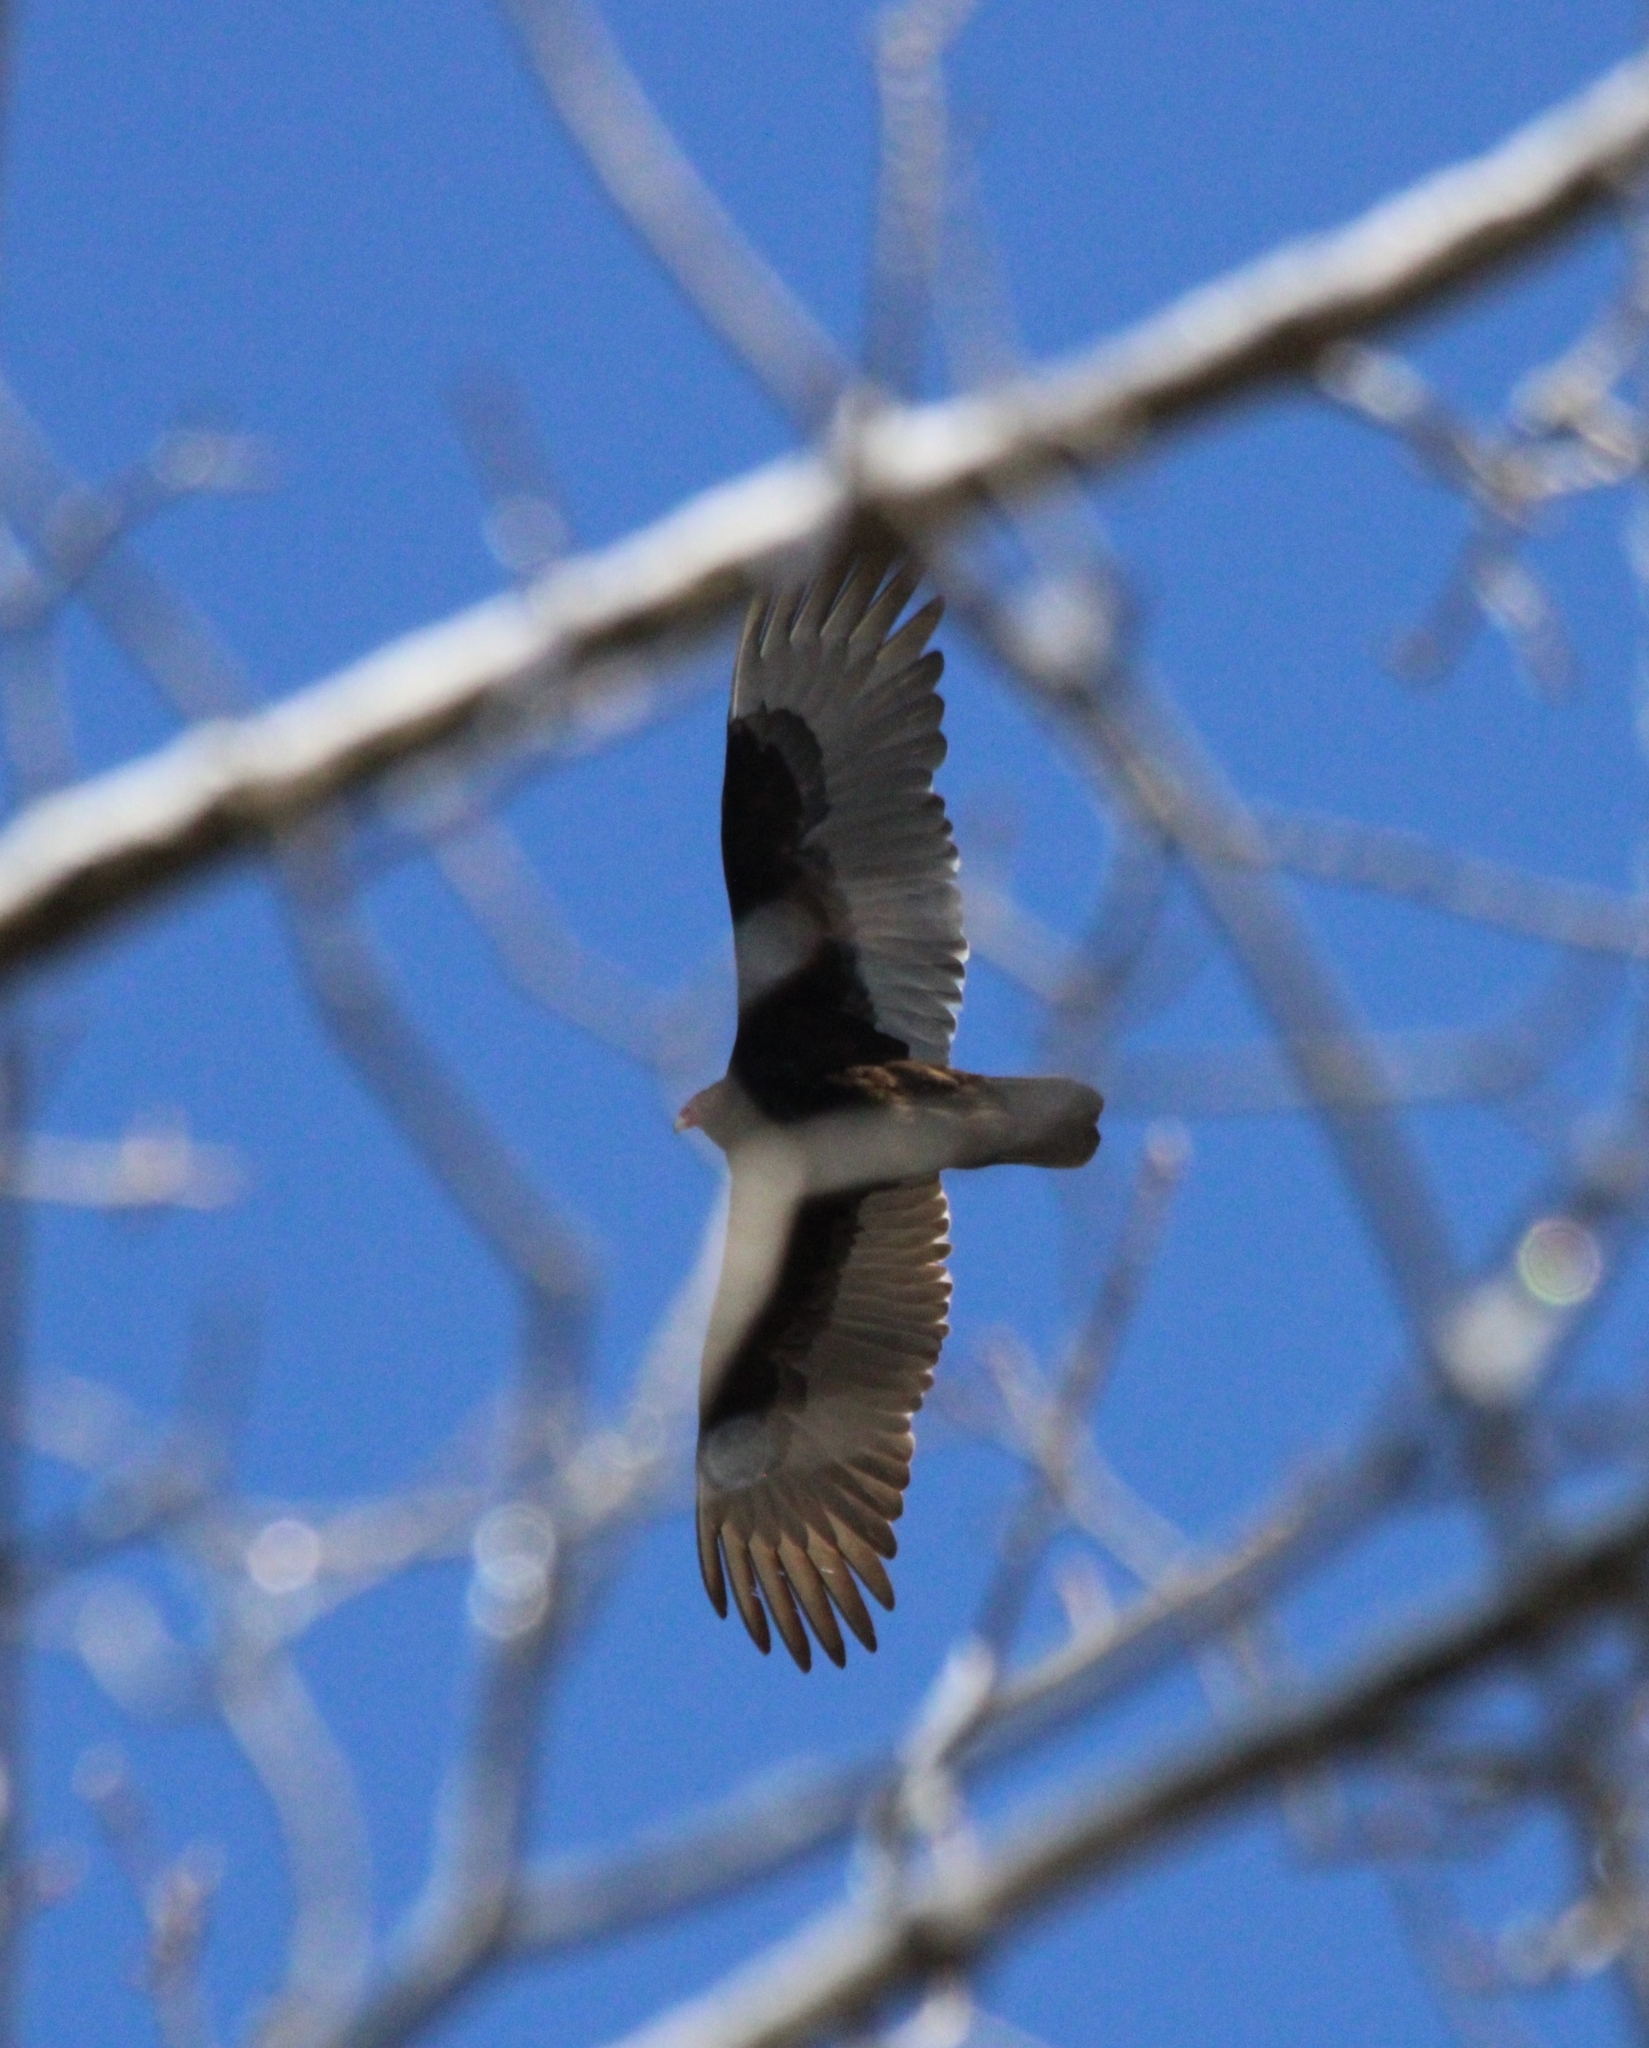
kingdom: Animalia
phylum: Chordata
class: Aves
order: Accipitriformes
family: Cathartidae
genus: Cathartes
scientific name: Cathartes aura
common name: Turkey vulture
